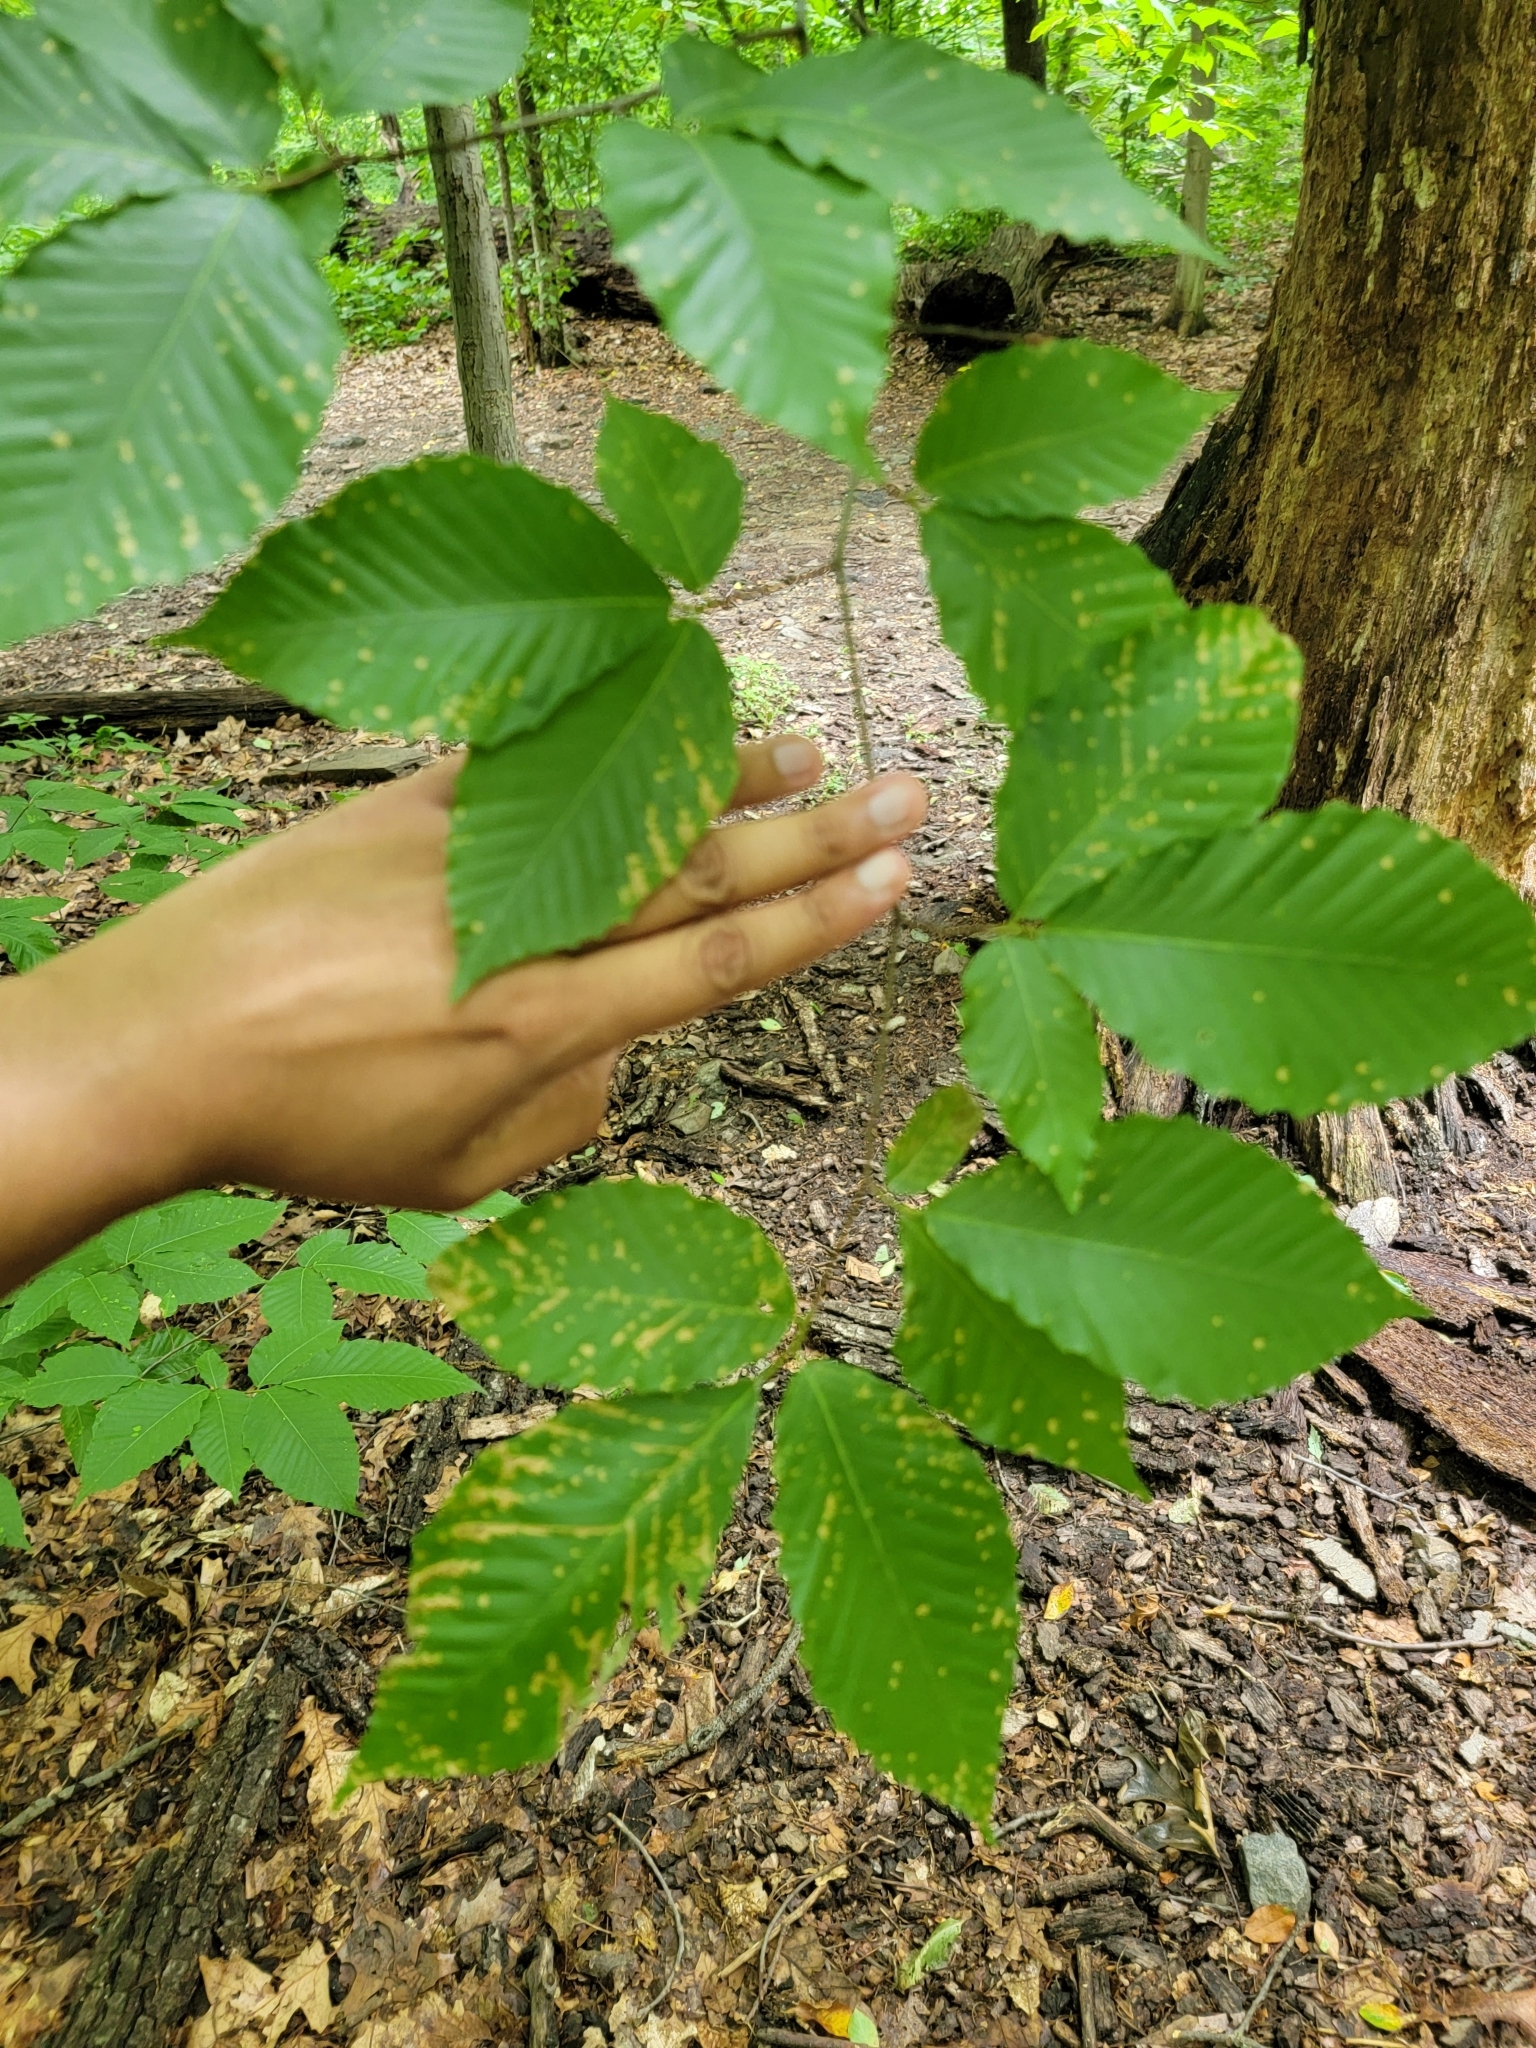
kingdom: Plantae
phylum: Tracheophyta
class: Magnoliopsida
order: Fagales
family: Fagaceae
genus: Fagus
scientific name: Fagus grandifolia
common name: American beech
